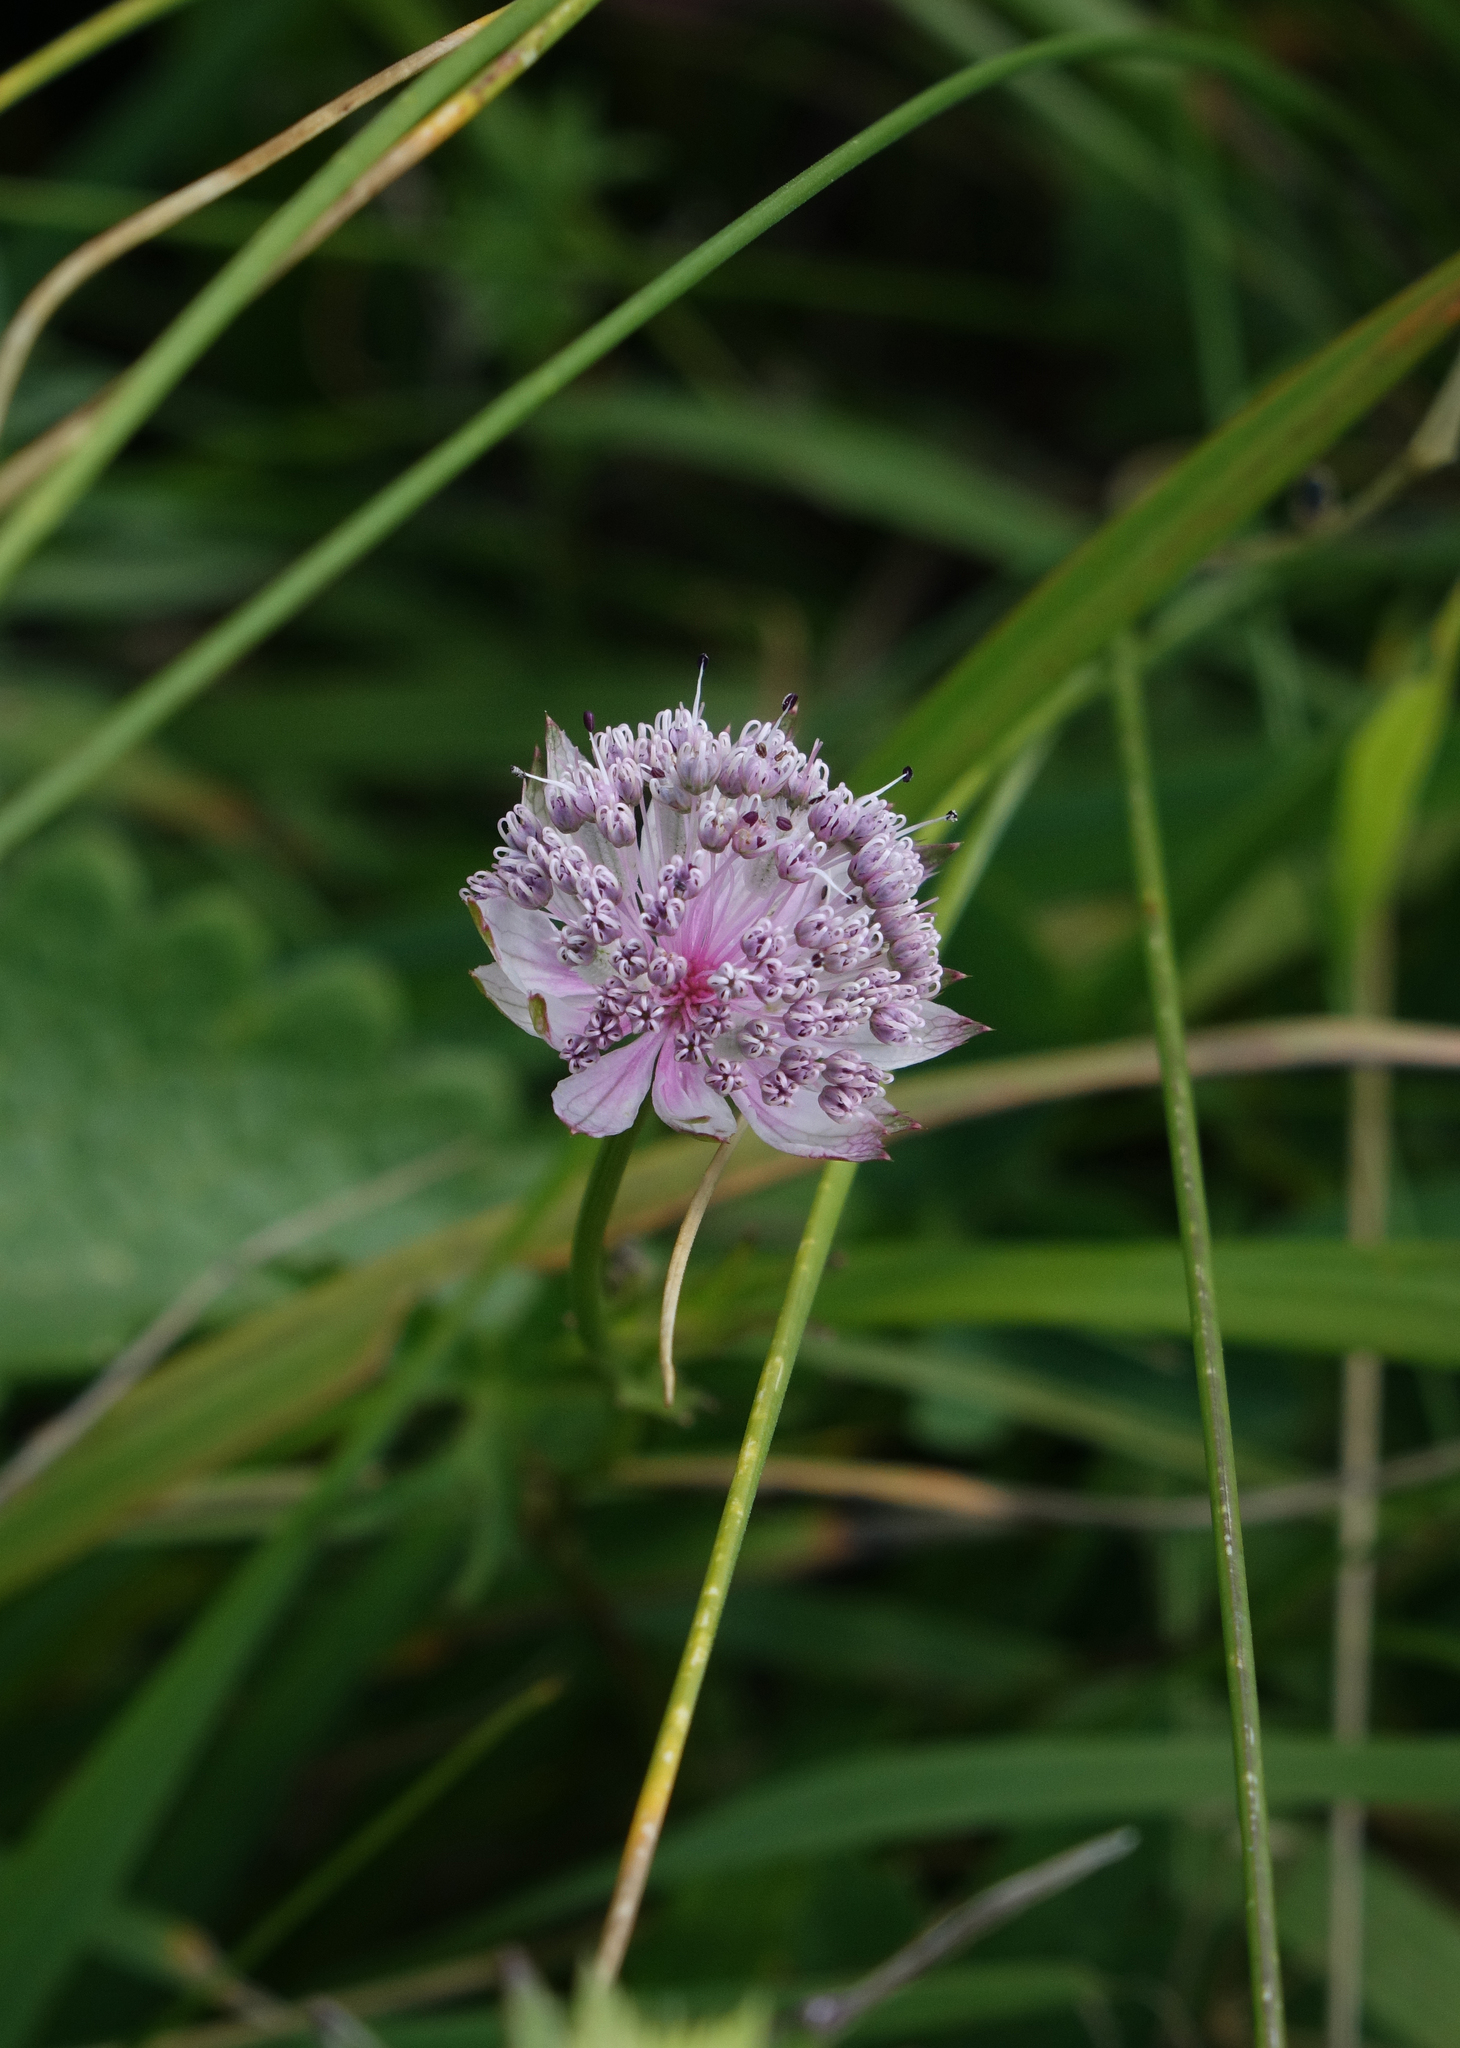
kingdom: Plantae
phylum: Tracheophyta
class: Magnoliopsida
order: Apiales
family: Apiaceae
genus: Astrantia
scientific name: Astrantia trifida
